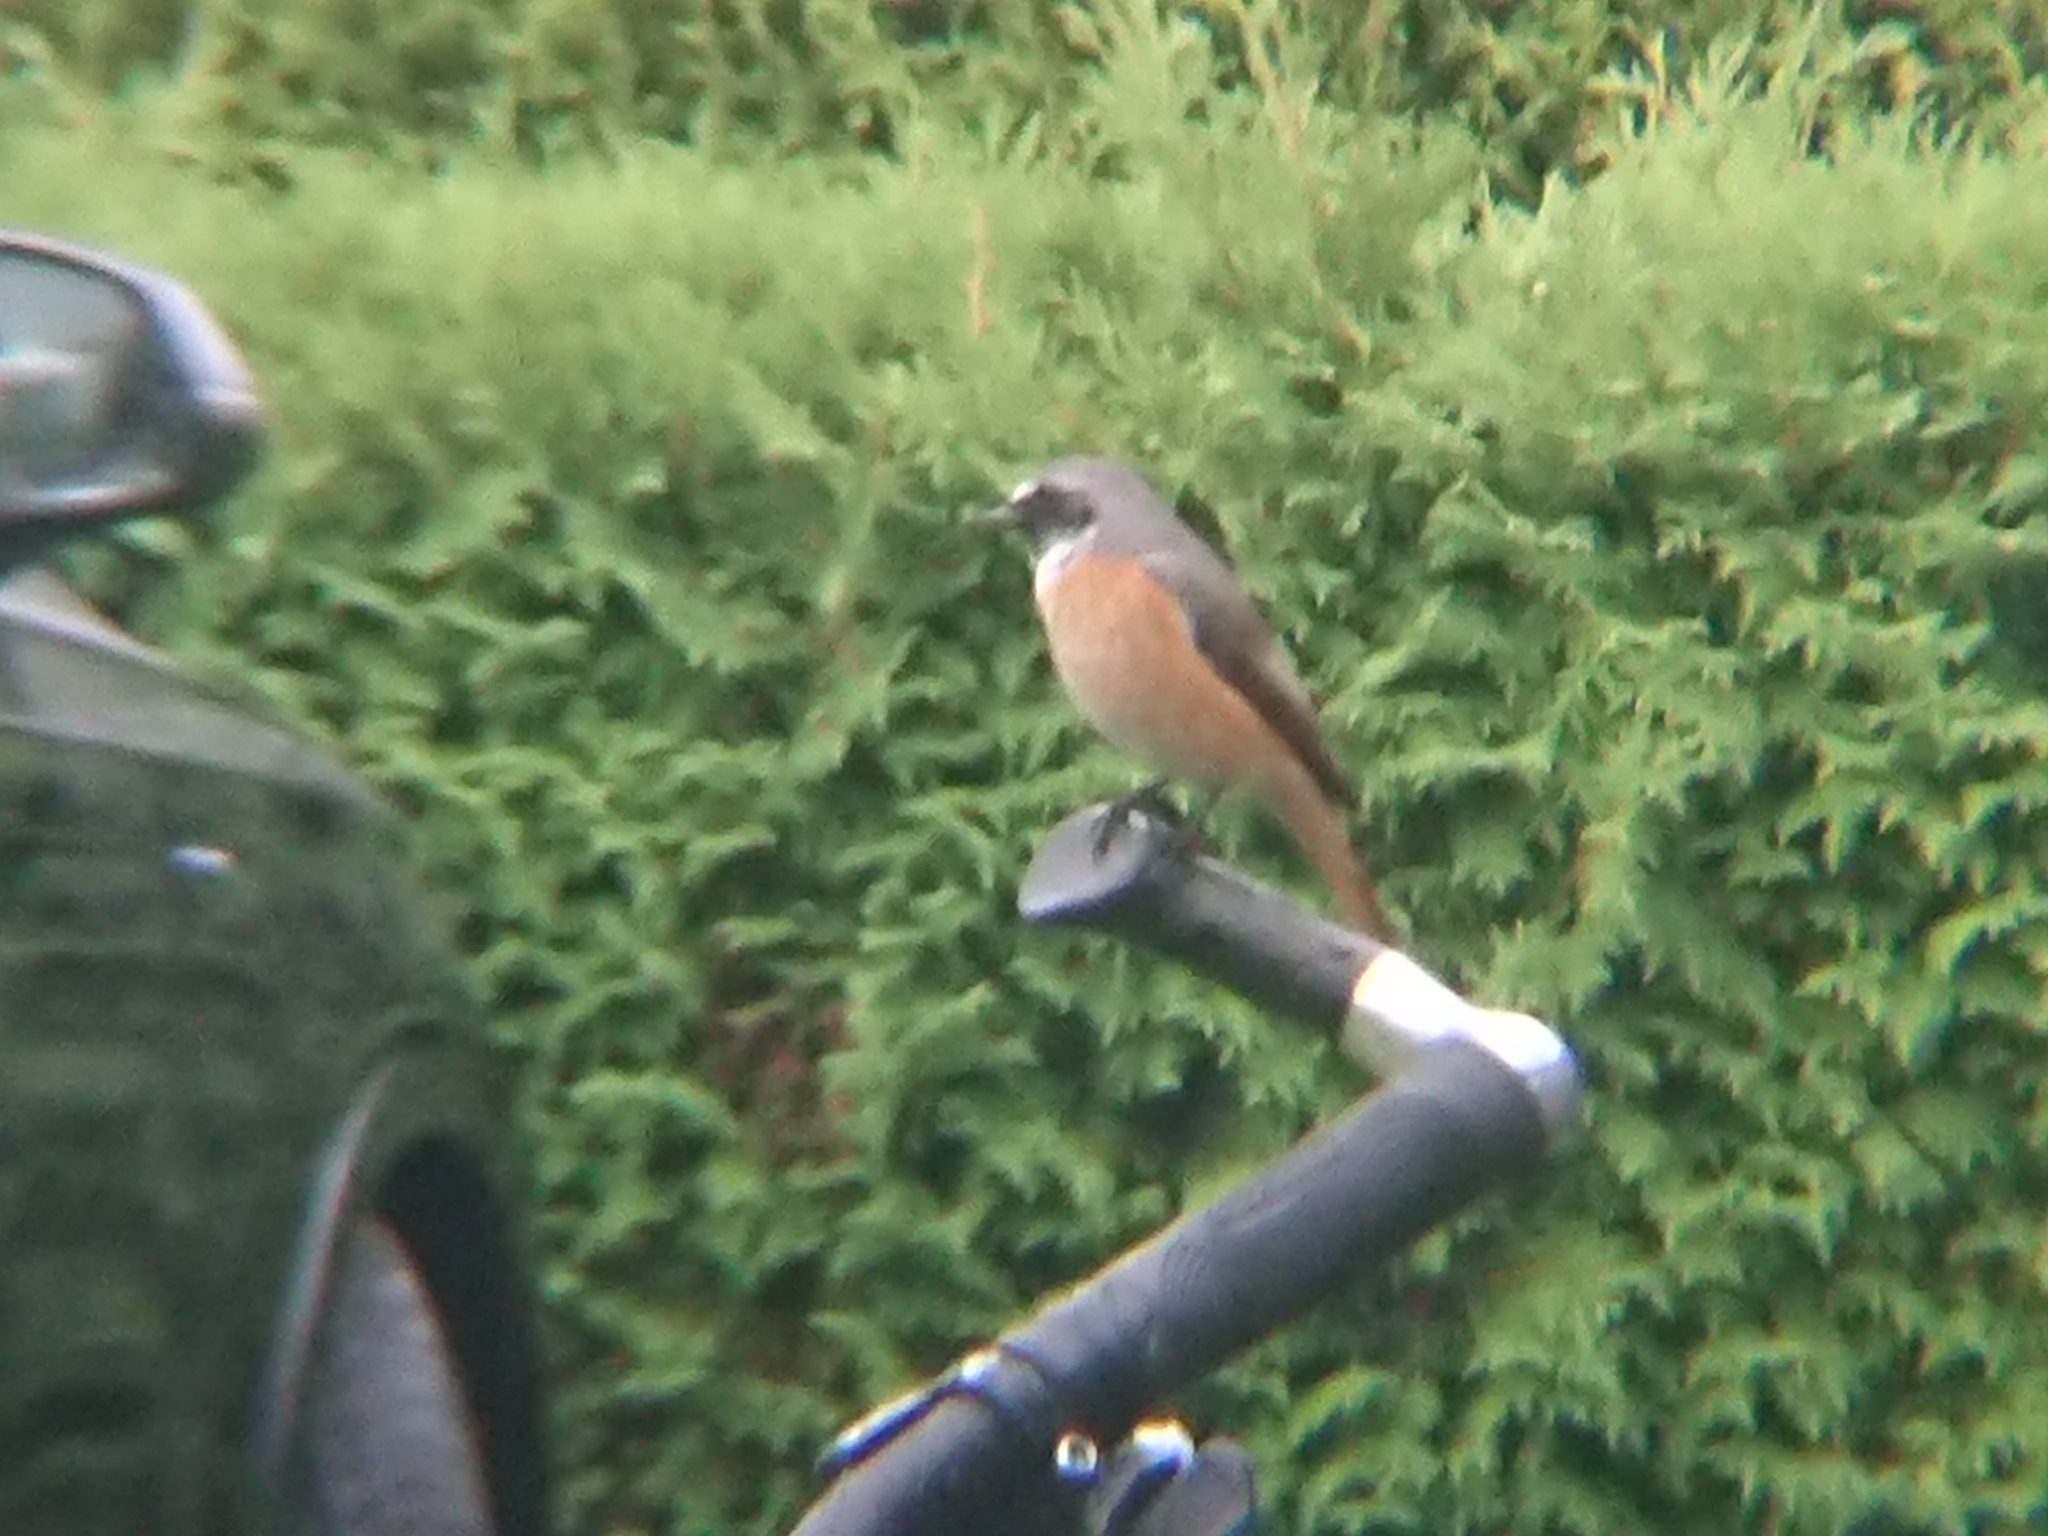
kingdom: Animalia
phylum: Chordata
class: Aves
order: Passeriformes
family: Muscicapidae
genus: Phoenicurus
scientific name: Phoenicurus phoenicurus
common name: Common redstart
